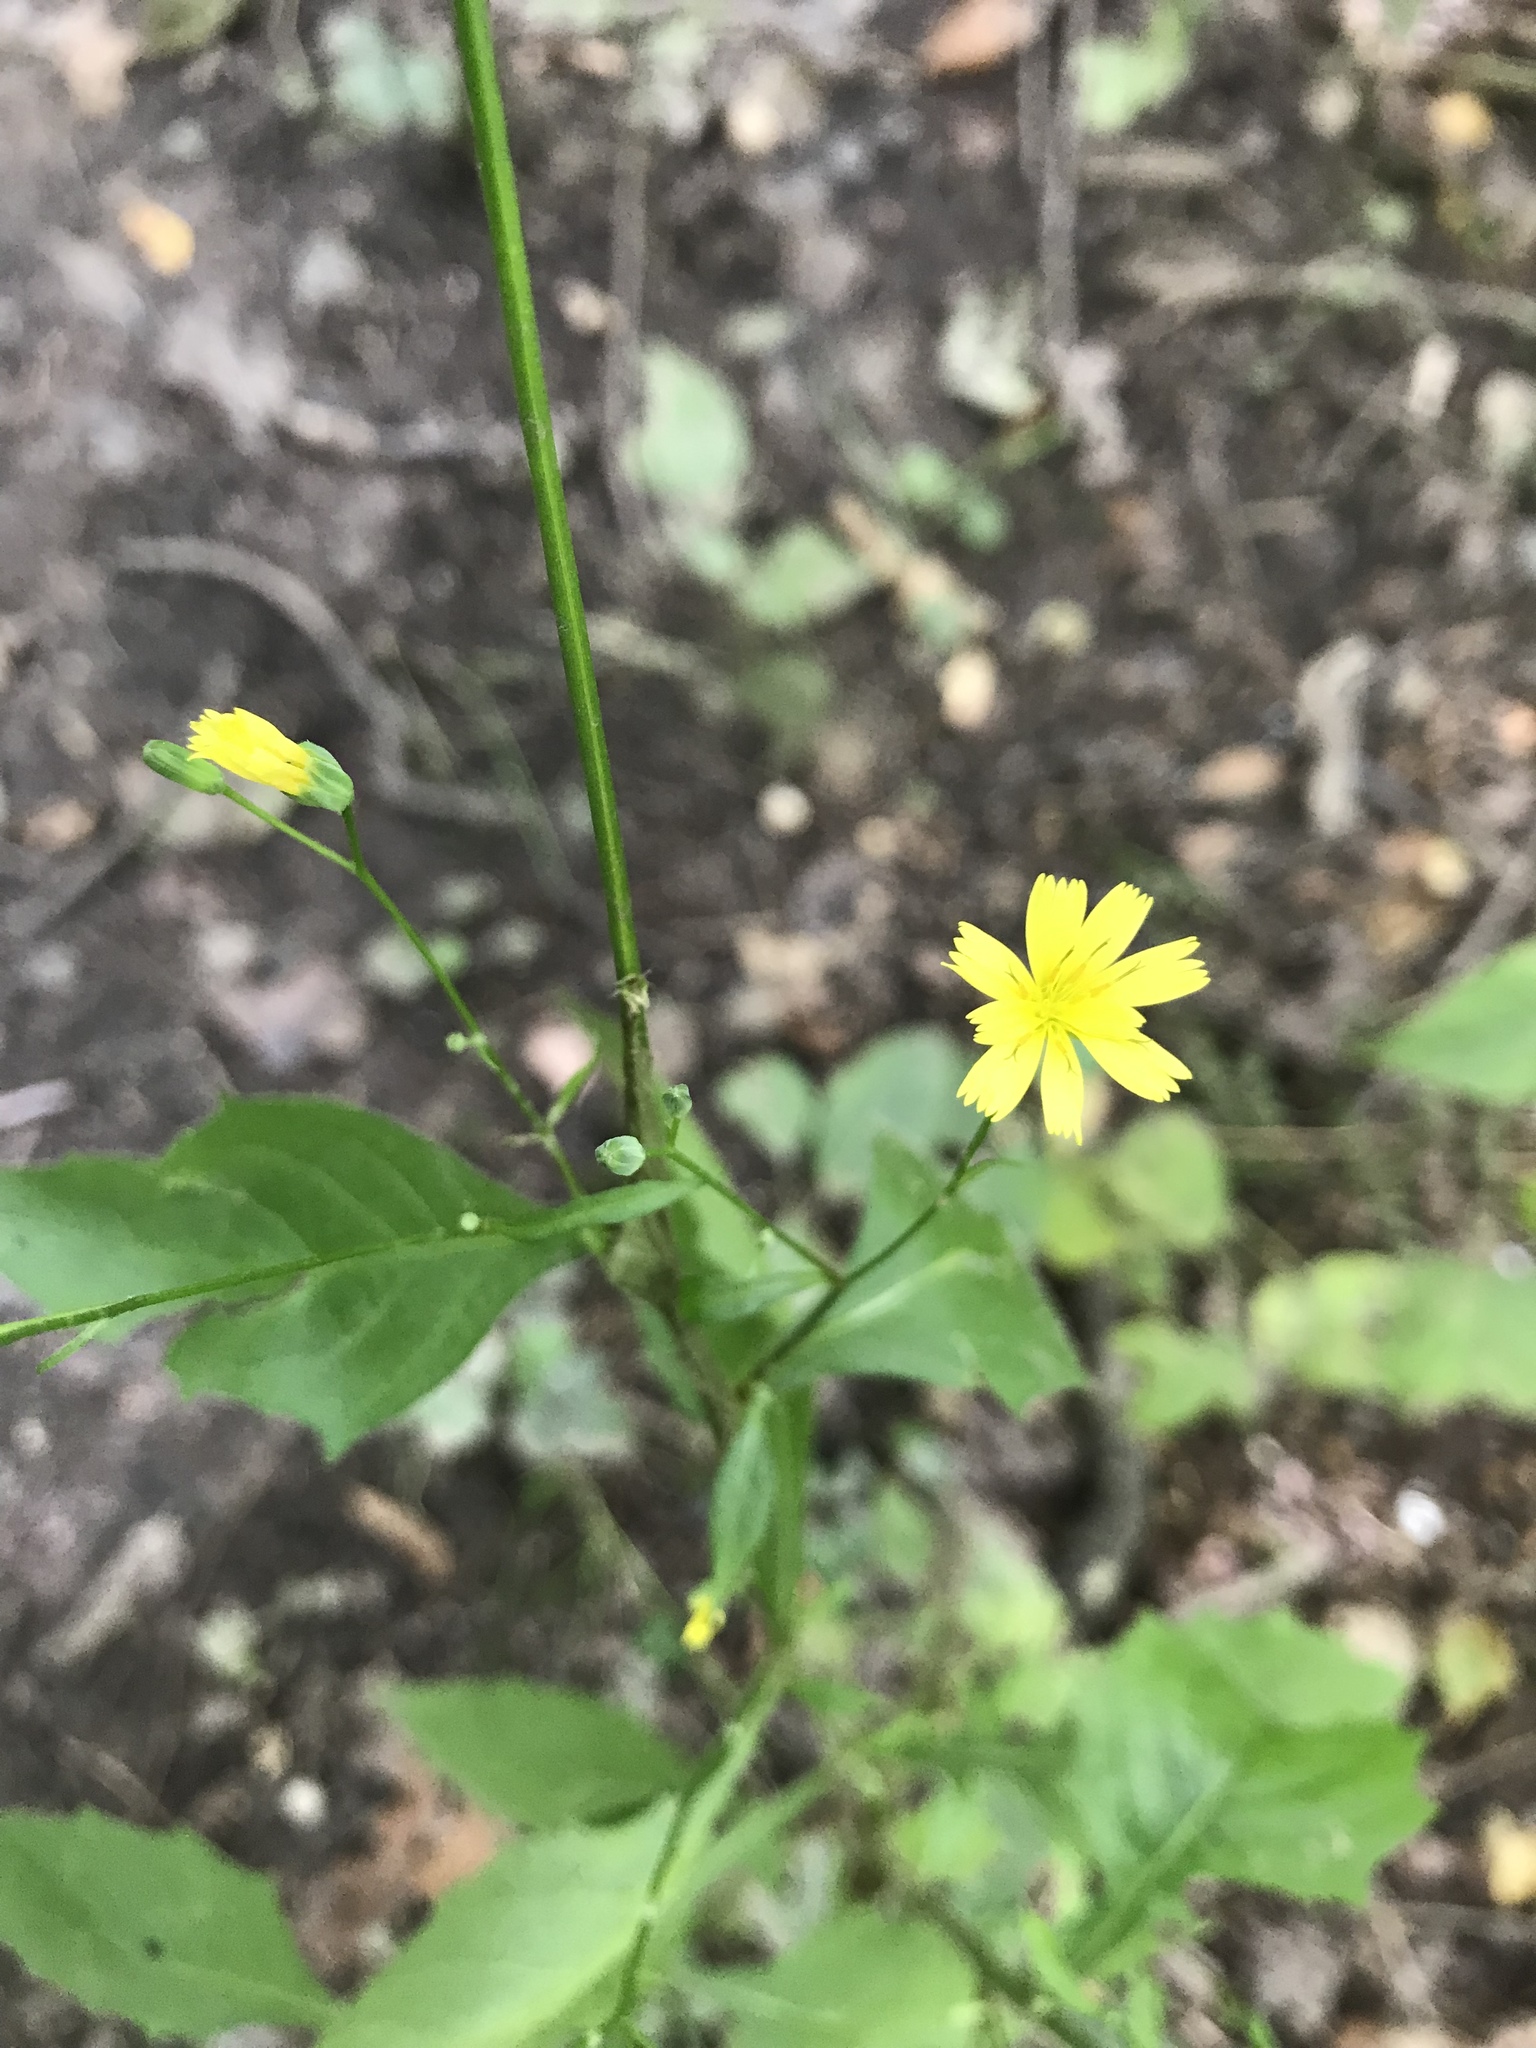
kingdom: Plantae
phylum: Tracheophyta
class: Magnoliopsida
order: Asterales
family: Asteraceae
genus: Lapsana
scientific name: Lapsana communis
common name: Nipplewort
